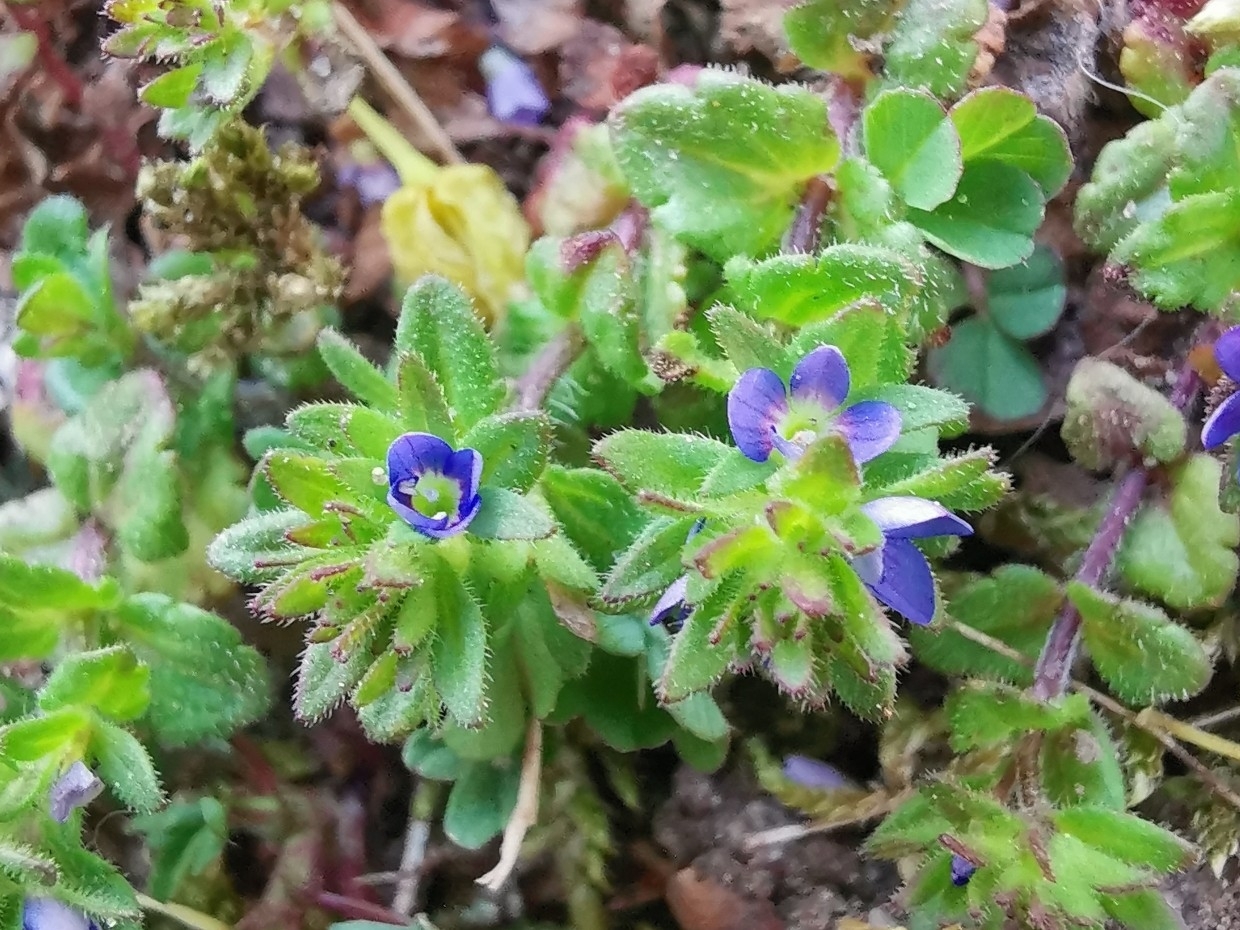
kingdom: Plantae
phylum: Tracheophyta
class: Magnoliopsida
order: Lamiales
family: Plantaginaceae
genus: Veronica
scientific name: Veronica arvensis
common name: Corn speedwell
